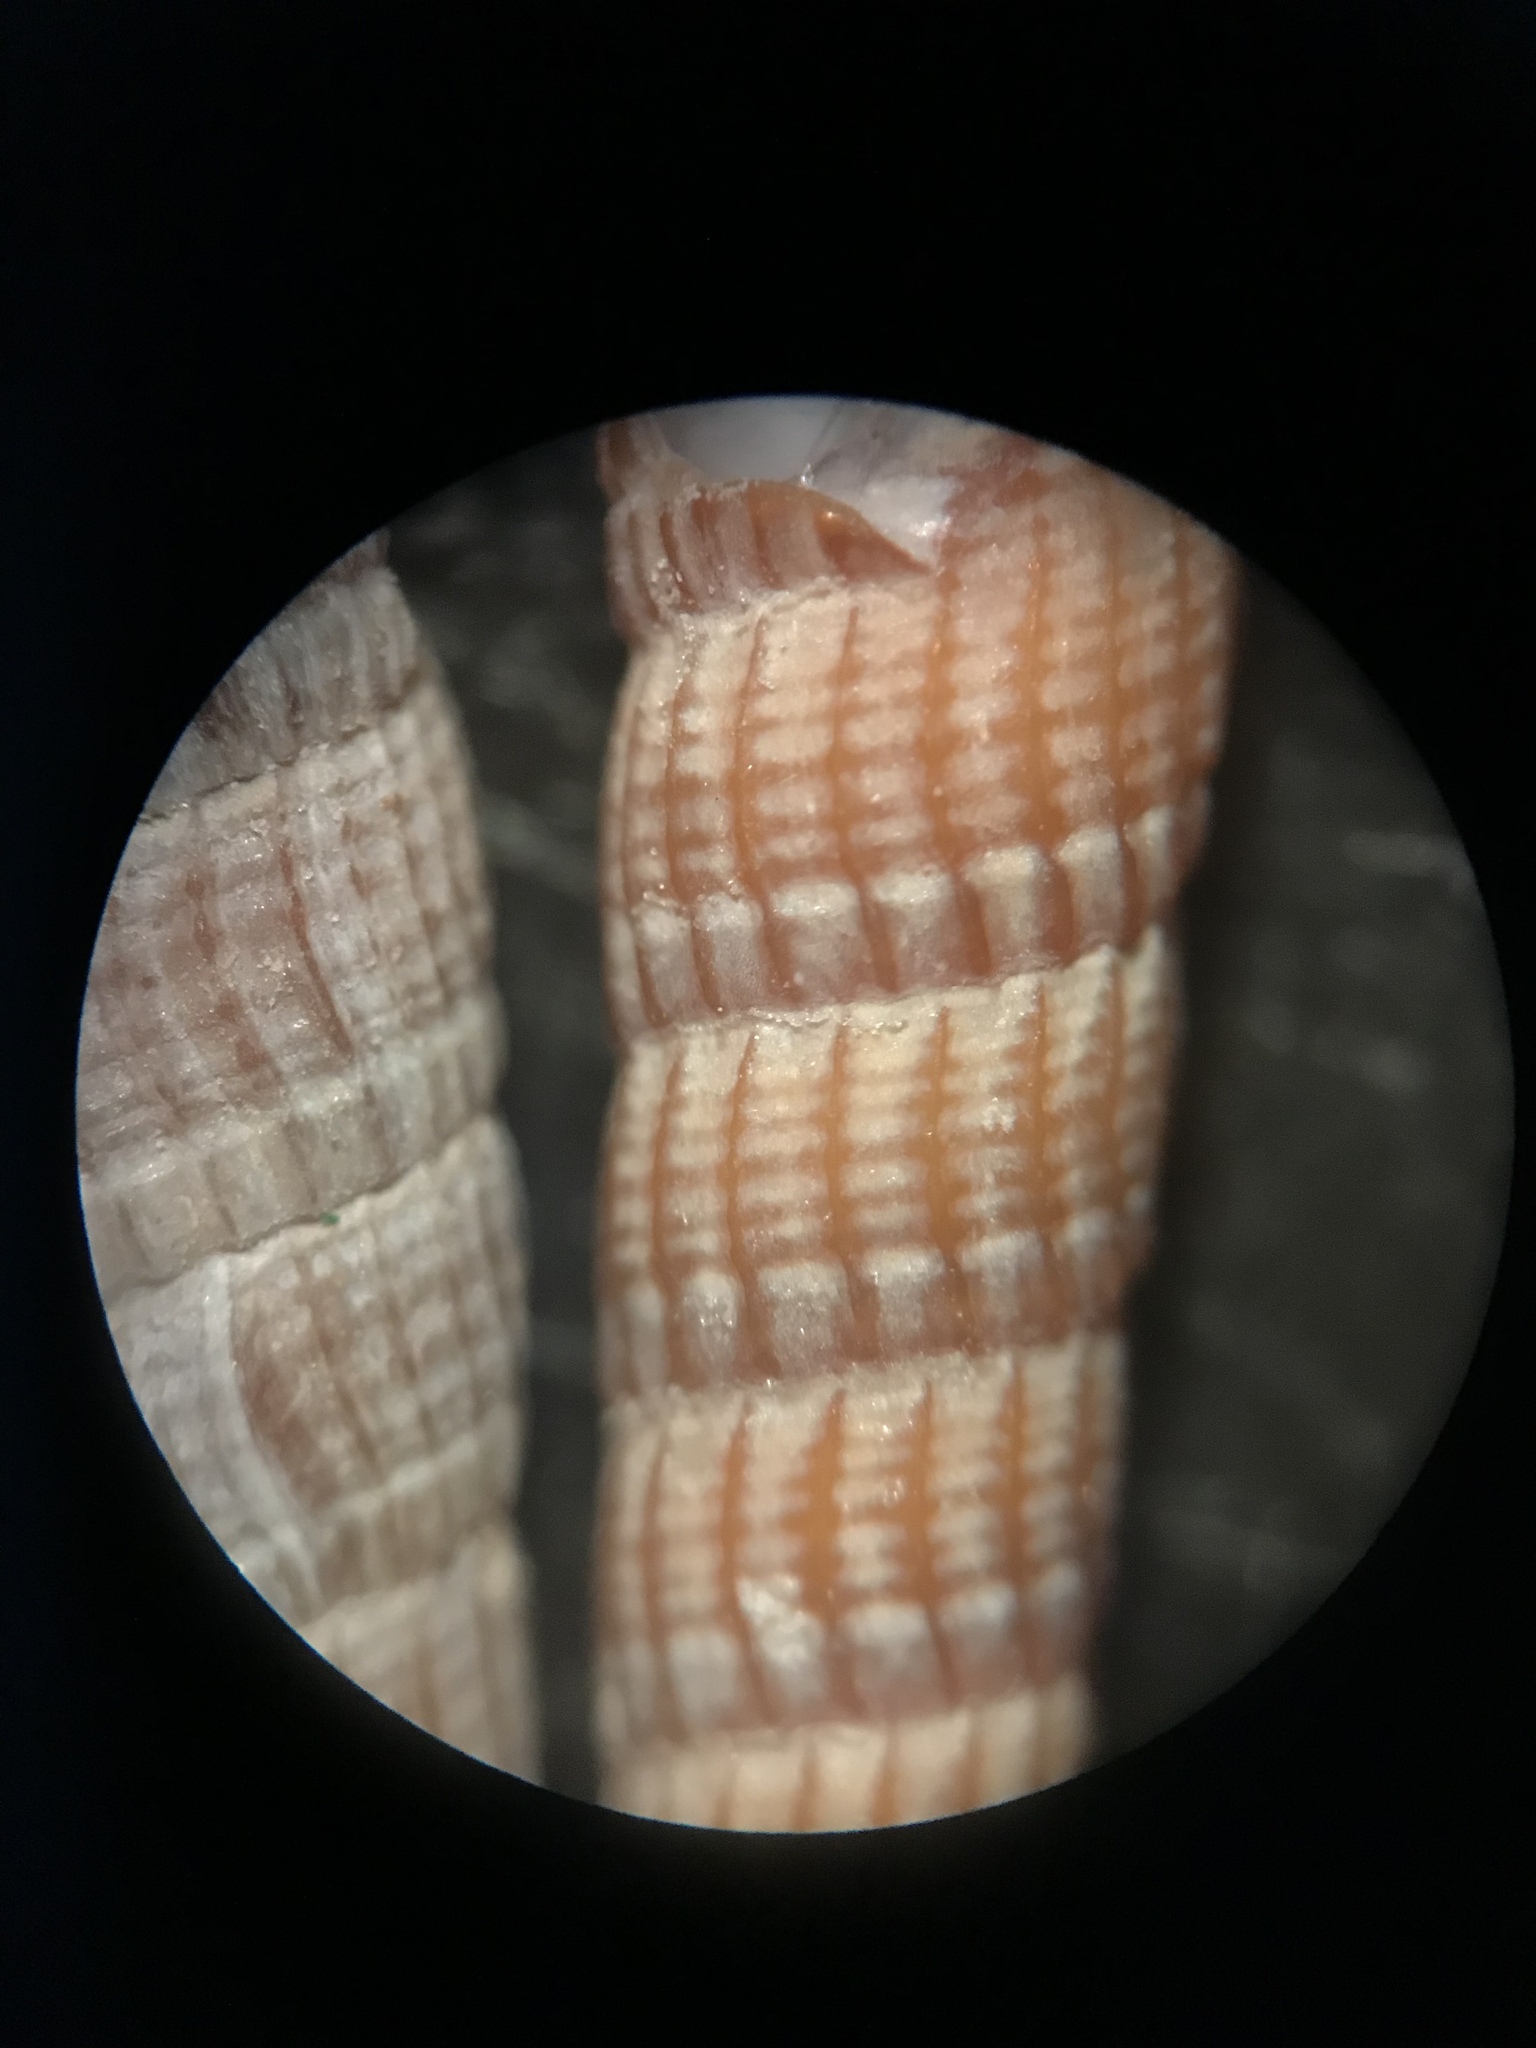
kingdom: Animalia
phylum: Mollusca
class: Gastropoda
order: Neogastropoda
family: Terebridae
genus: Neoterebra
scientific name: Neoterebra protexta
